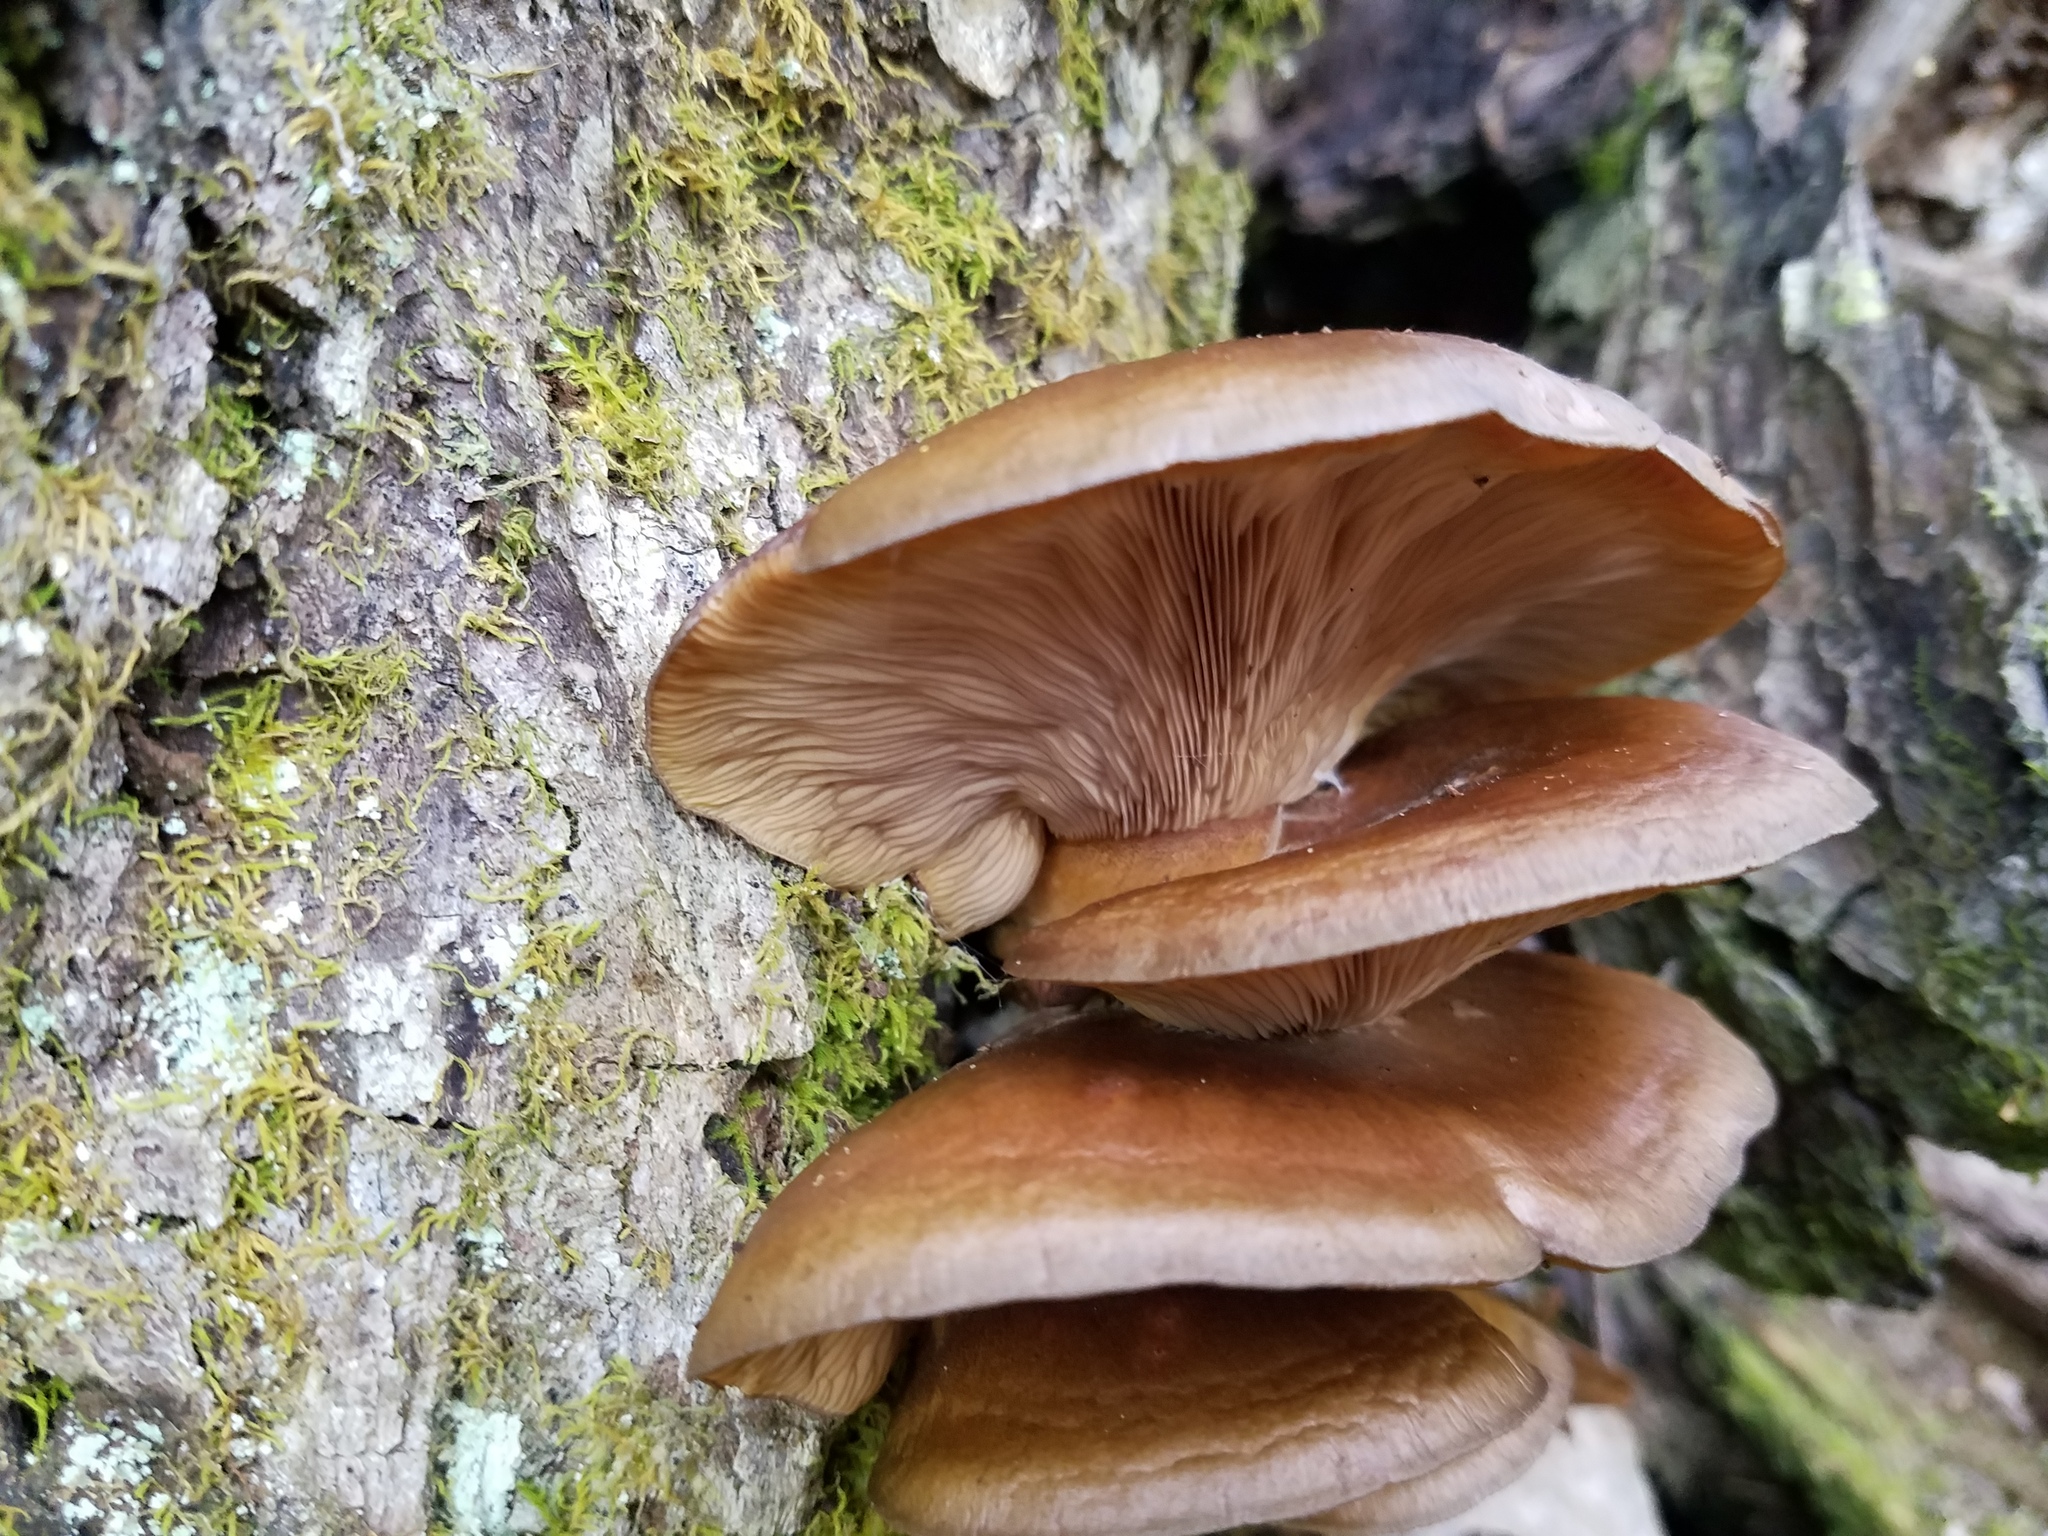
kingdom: Fungi
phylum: Basidiomycota
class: Agaricomycetes
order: Agaricales
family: Sarcomyxaceae
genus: Sarcomyxa
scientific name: Sarcomyxa serotina
